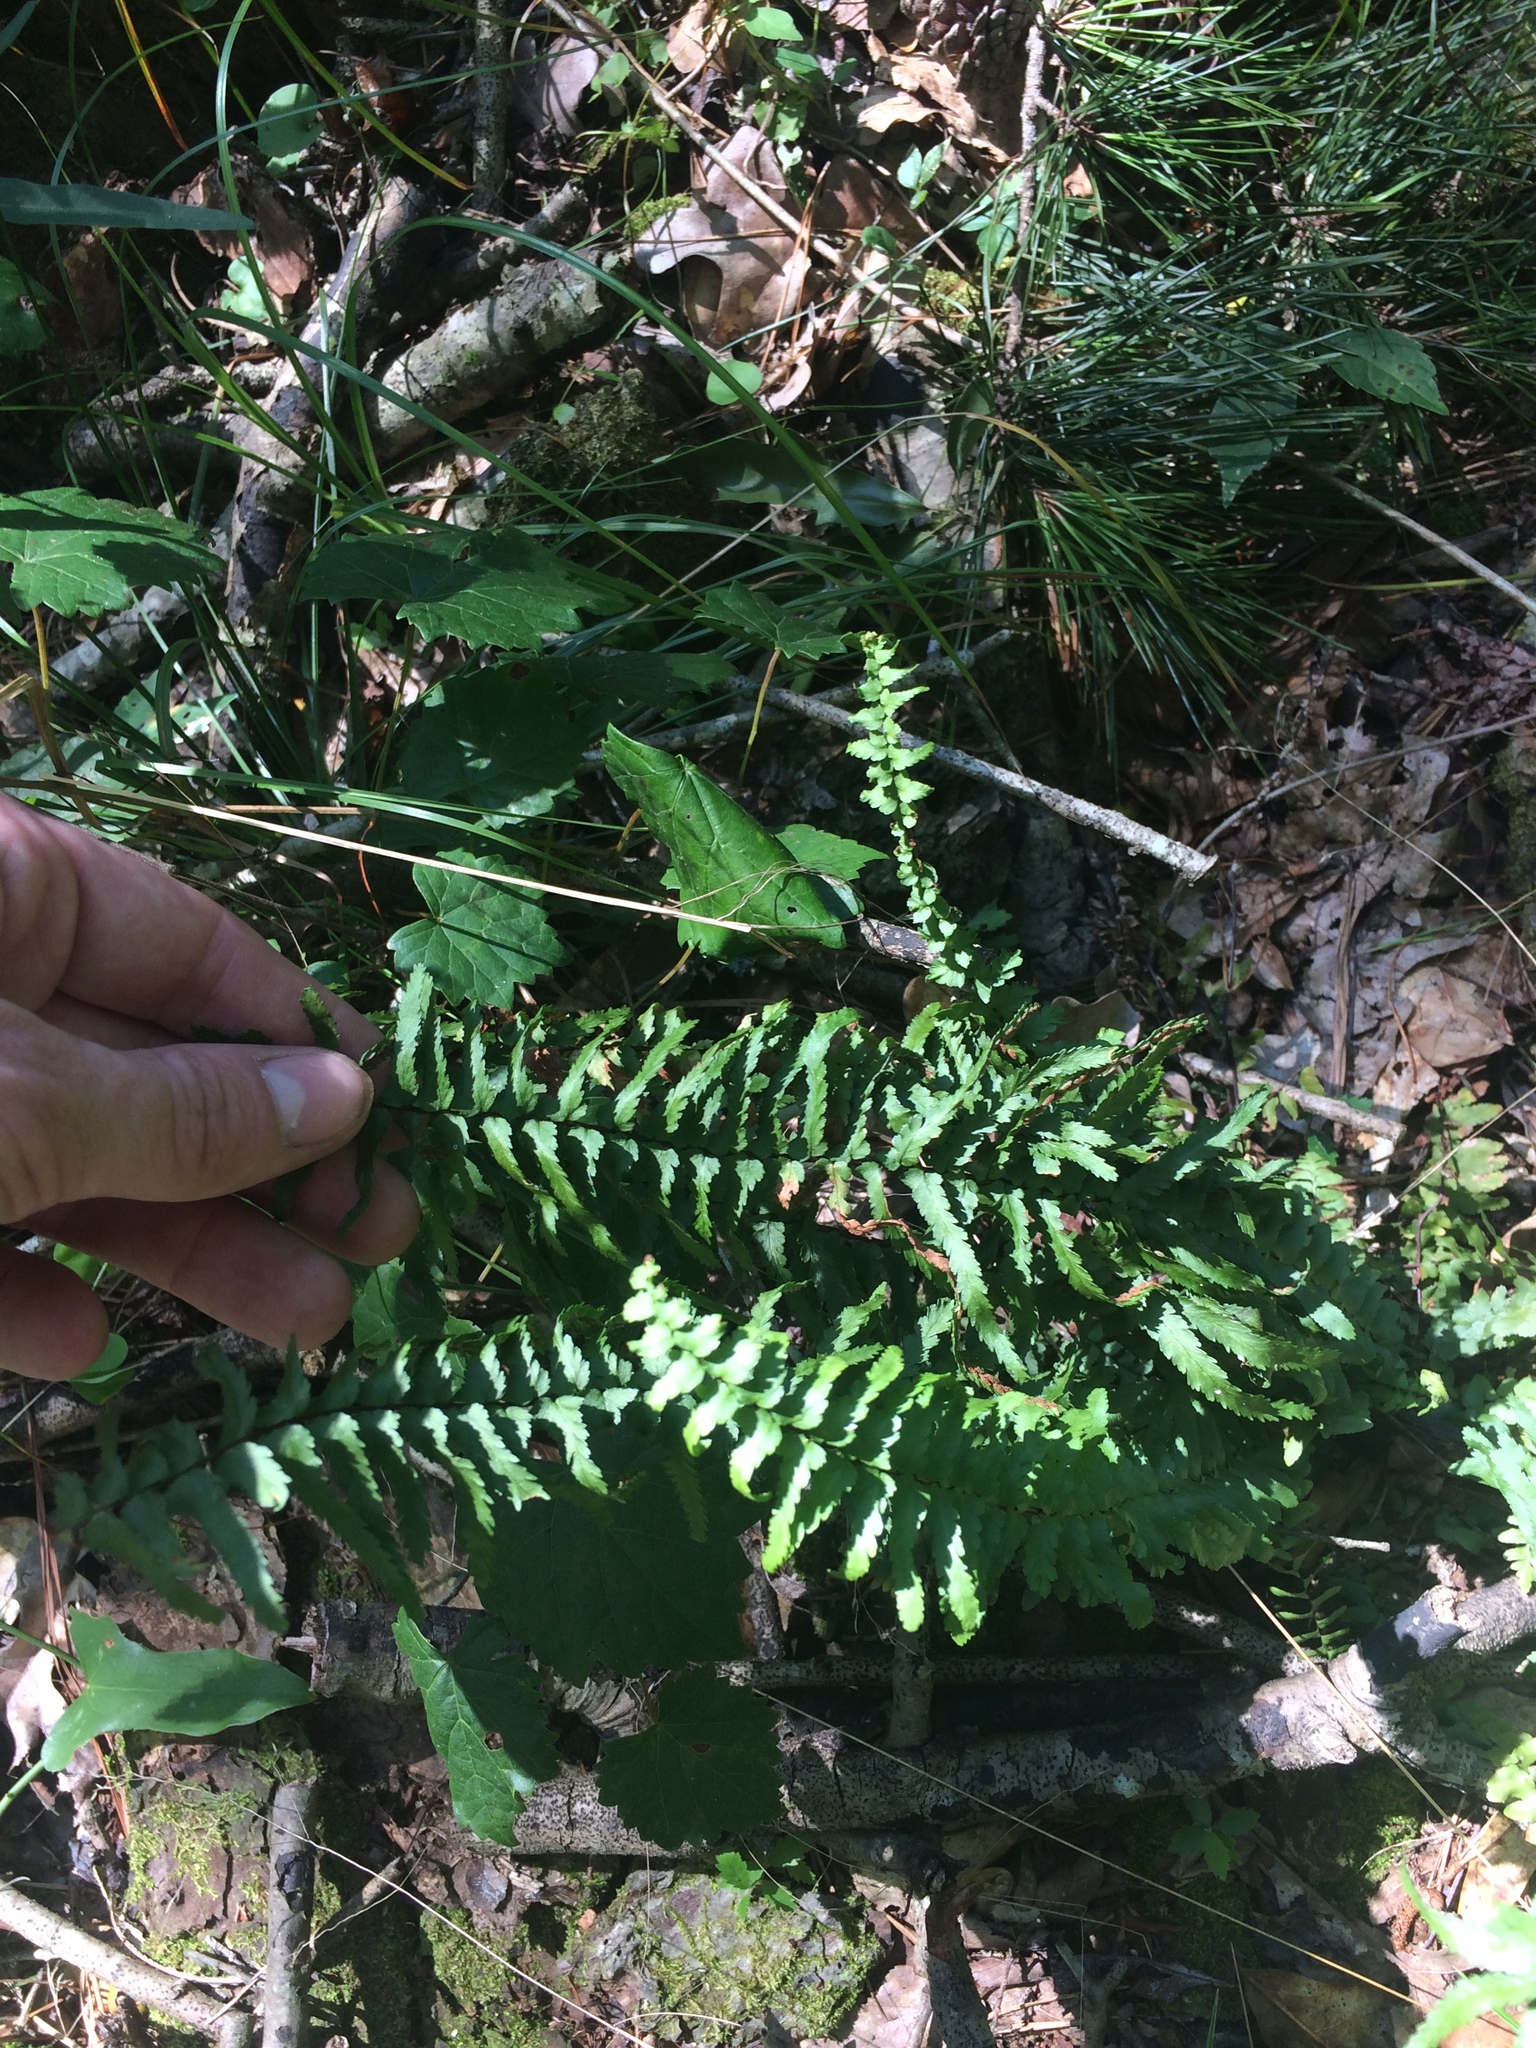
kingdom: Plantae
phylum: Tracheophyta
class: Polypodiopsida
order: Polypodiales
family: Aspleniaceae
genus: Asplenium
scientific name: Asplenium platyneuron
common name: Ebony spleenwort
